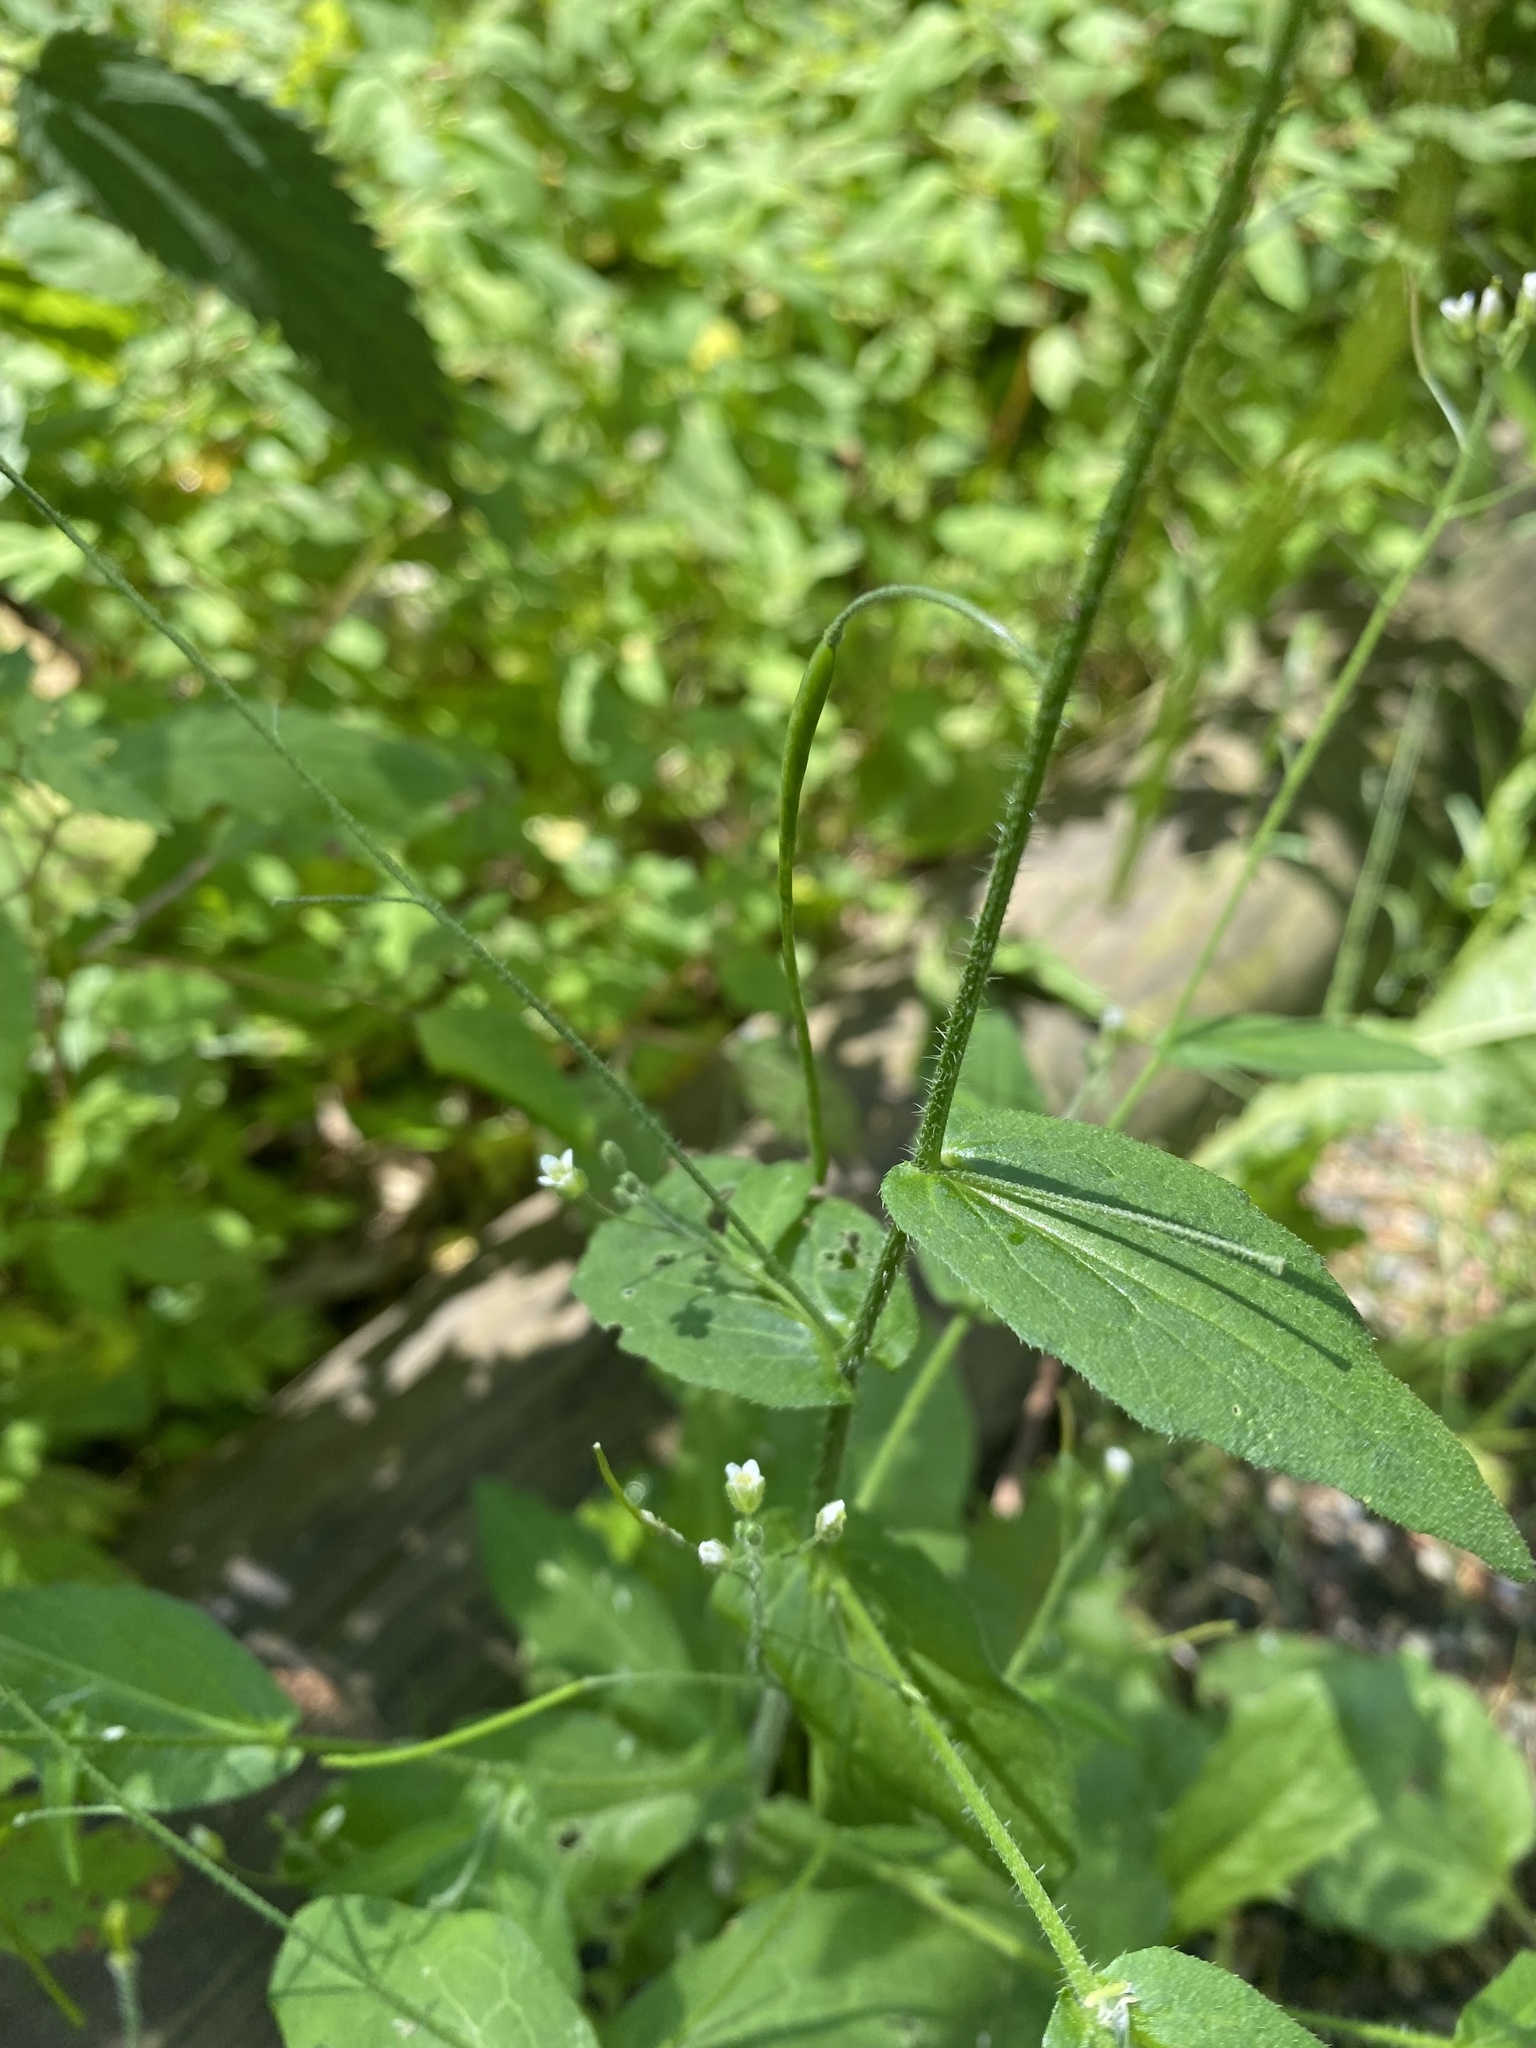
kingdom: Plantae
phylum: Tracheophyta
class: Magnoliopsida
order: Brassicales
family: Brassicaceae
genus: Catolobus
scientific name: Catolobus pendulus
